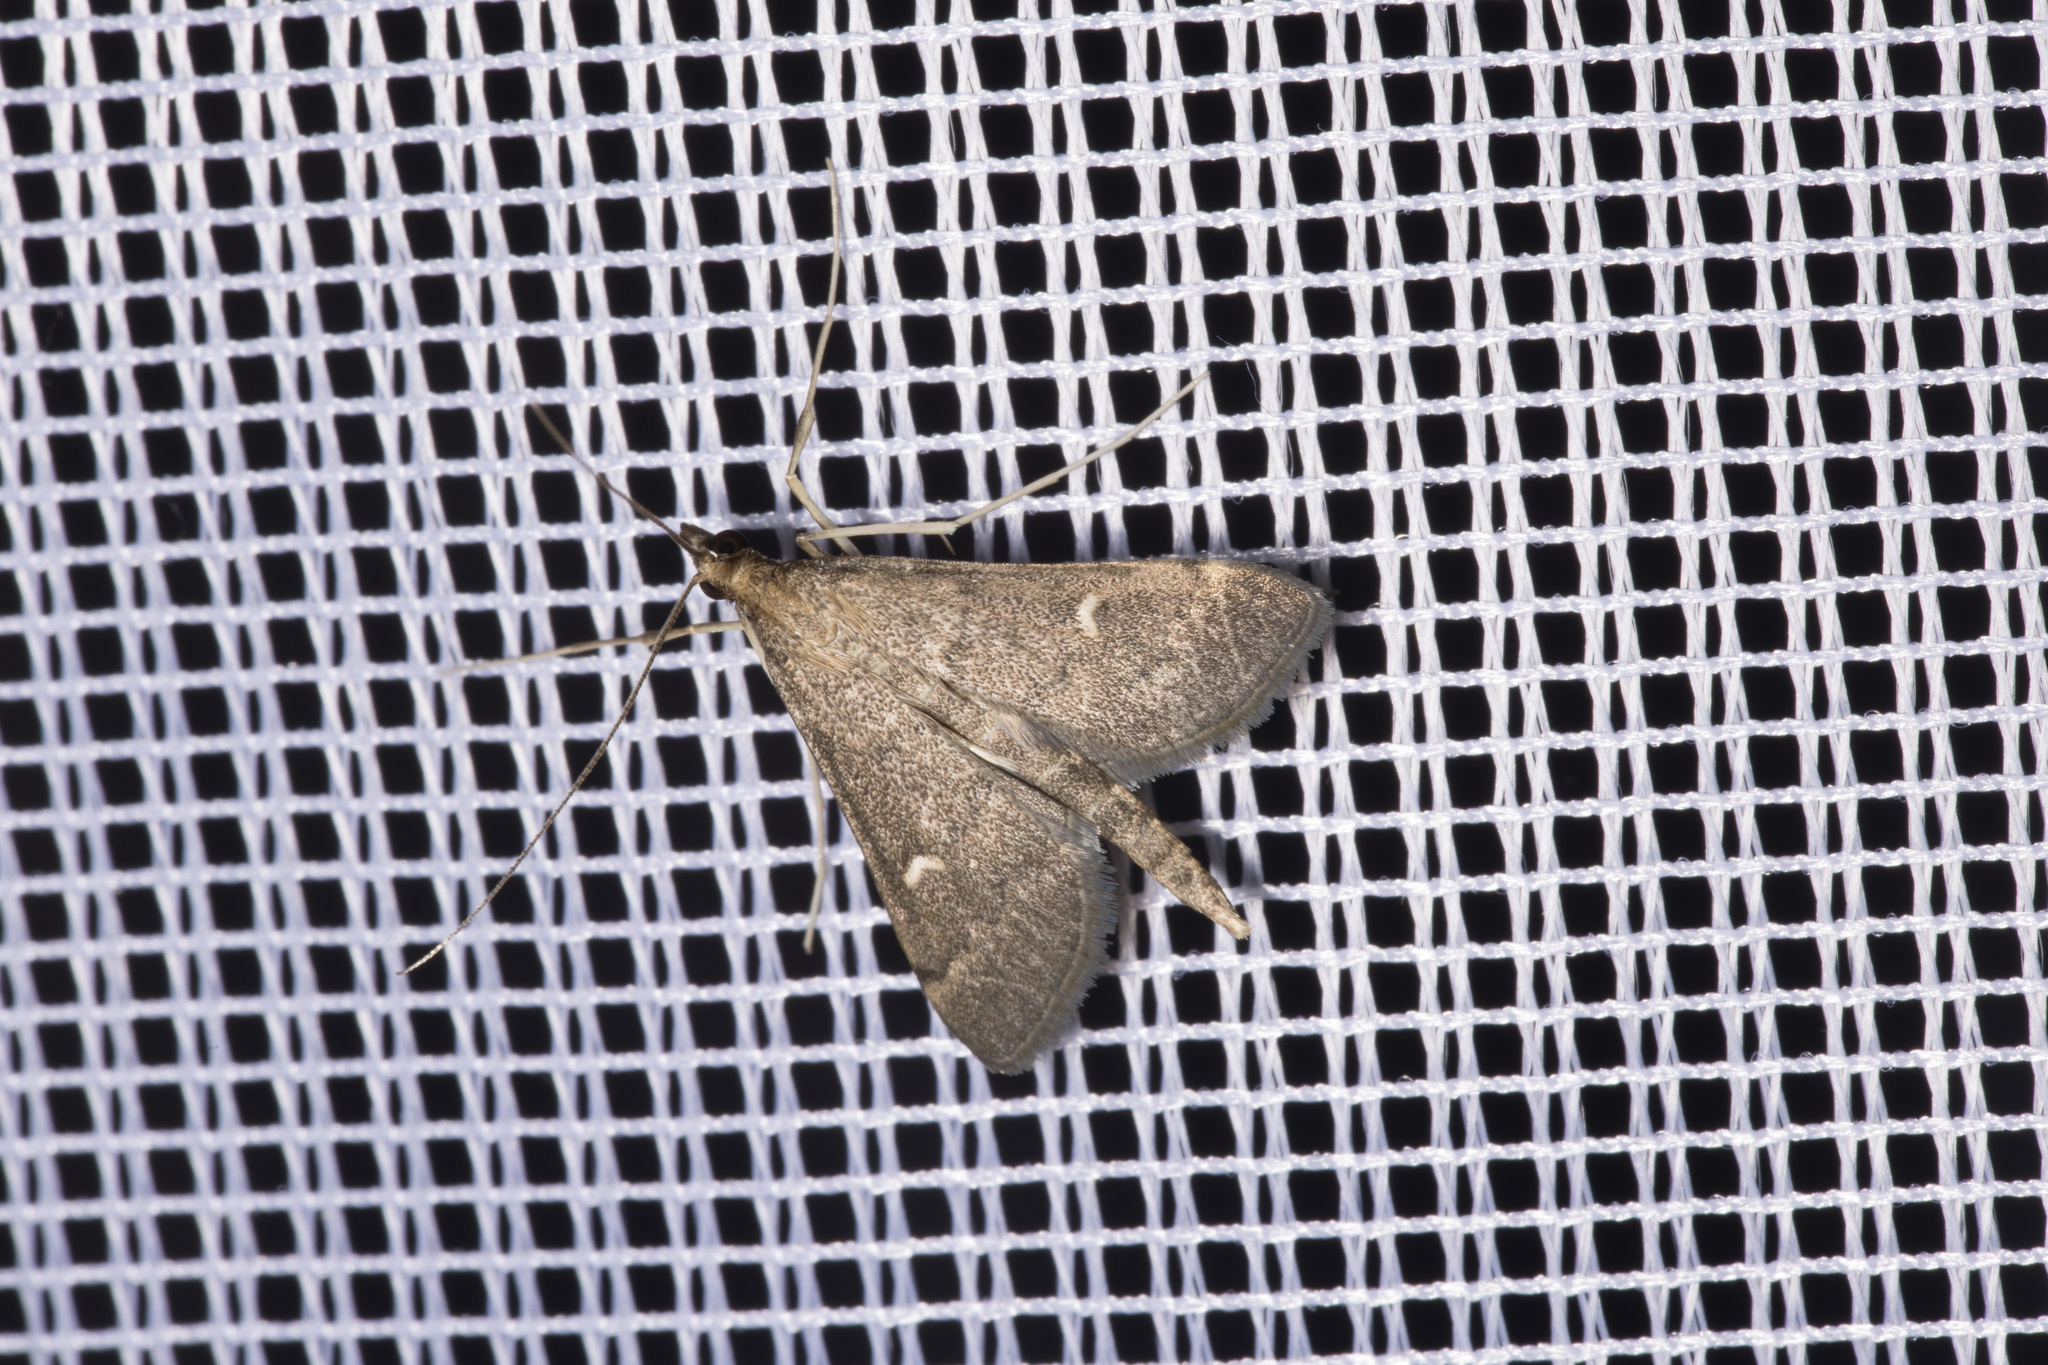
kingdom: Animalia
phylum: Arthropoda
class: Insecta
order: Lepidoptera
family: Crambidae
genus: Stenia
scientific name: Stenia Dolicharthria punctalis
